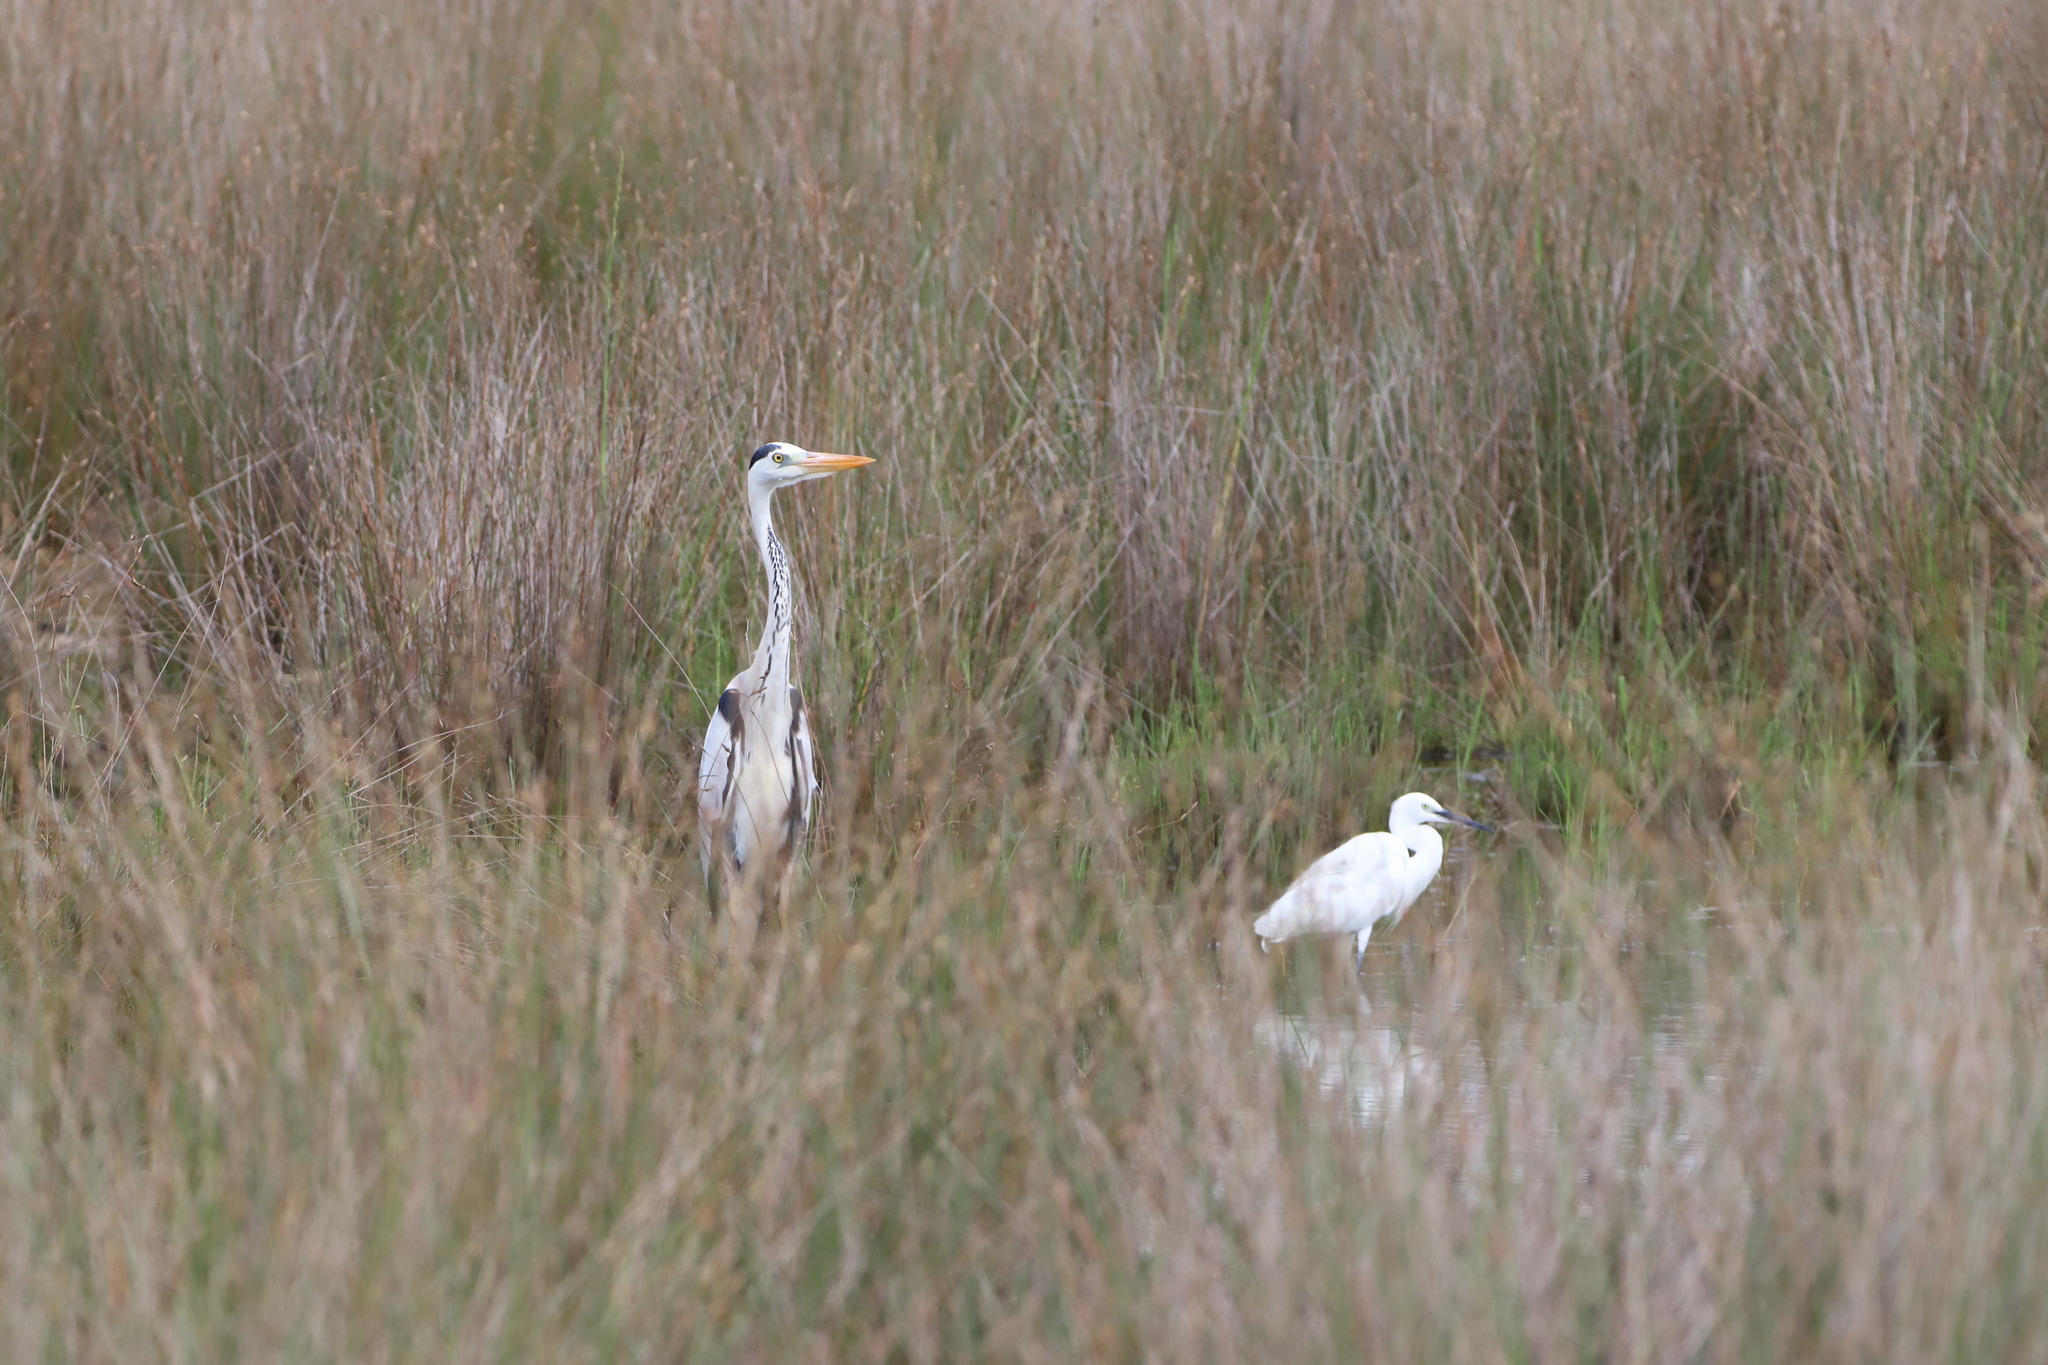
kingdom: Animalia
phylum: Chordata
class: Aves
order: Pelecaniformes
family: Ardeidae
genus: Egretta
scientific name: Egretta garzetta
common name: Little egret
